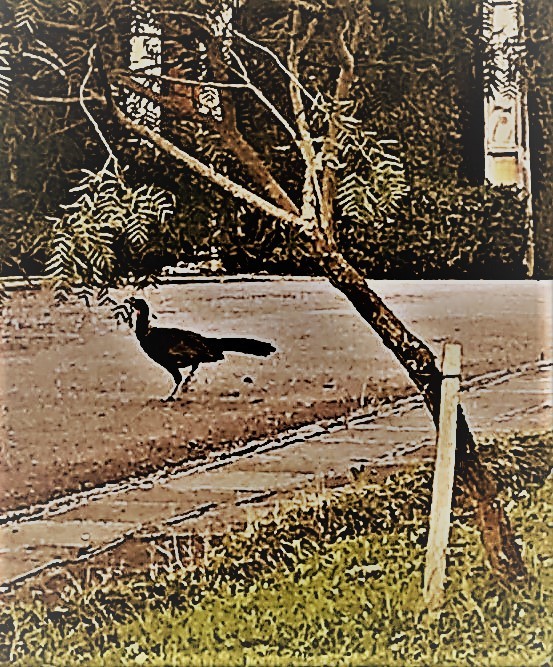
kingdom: Animalia
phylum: Chordata
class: Aves
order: Galliformes
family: Cracidae
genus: Penelope
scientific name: Penelope obscura
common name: Dusky-legged guan
